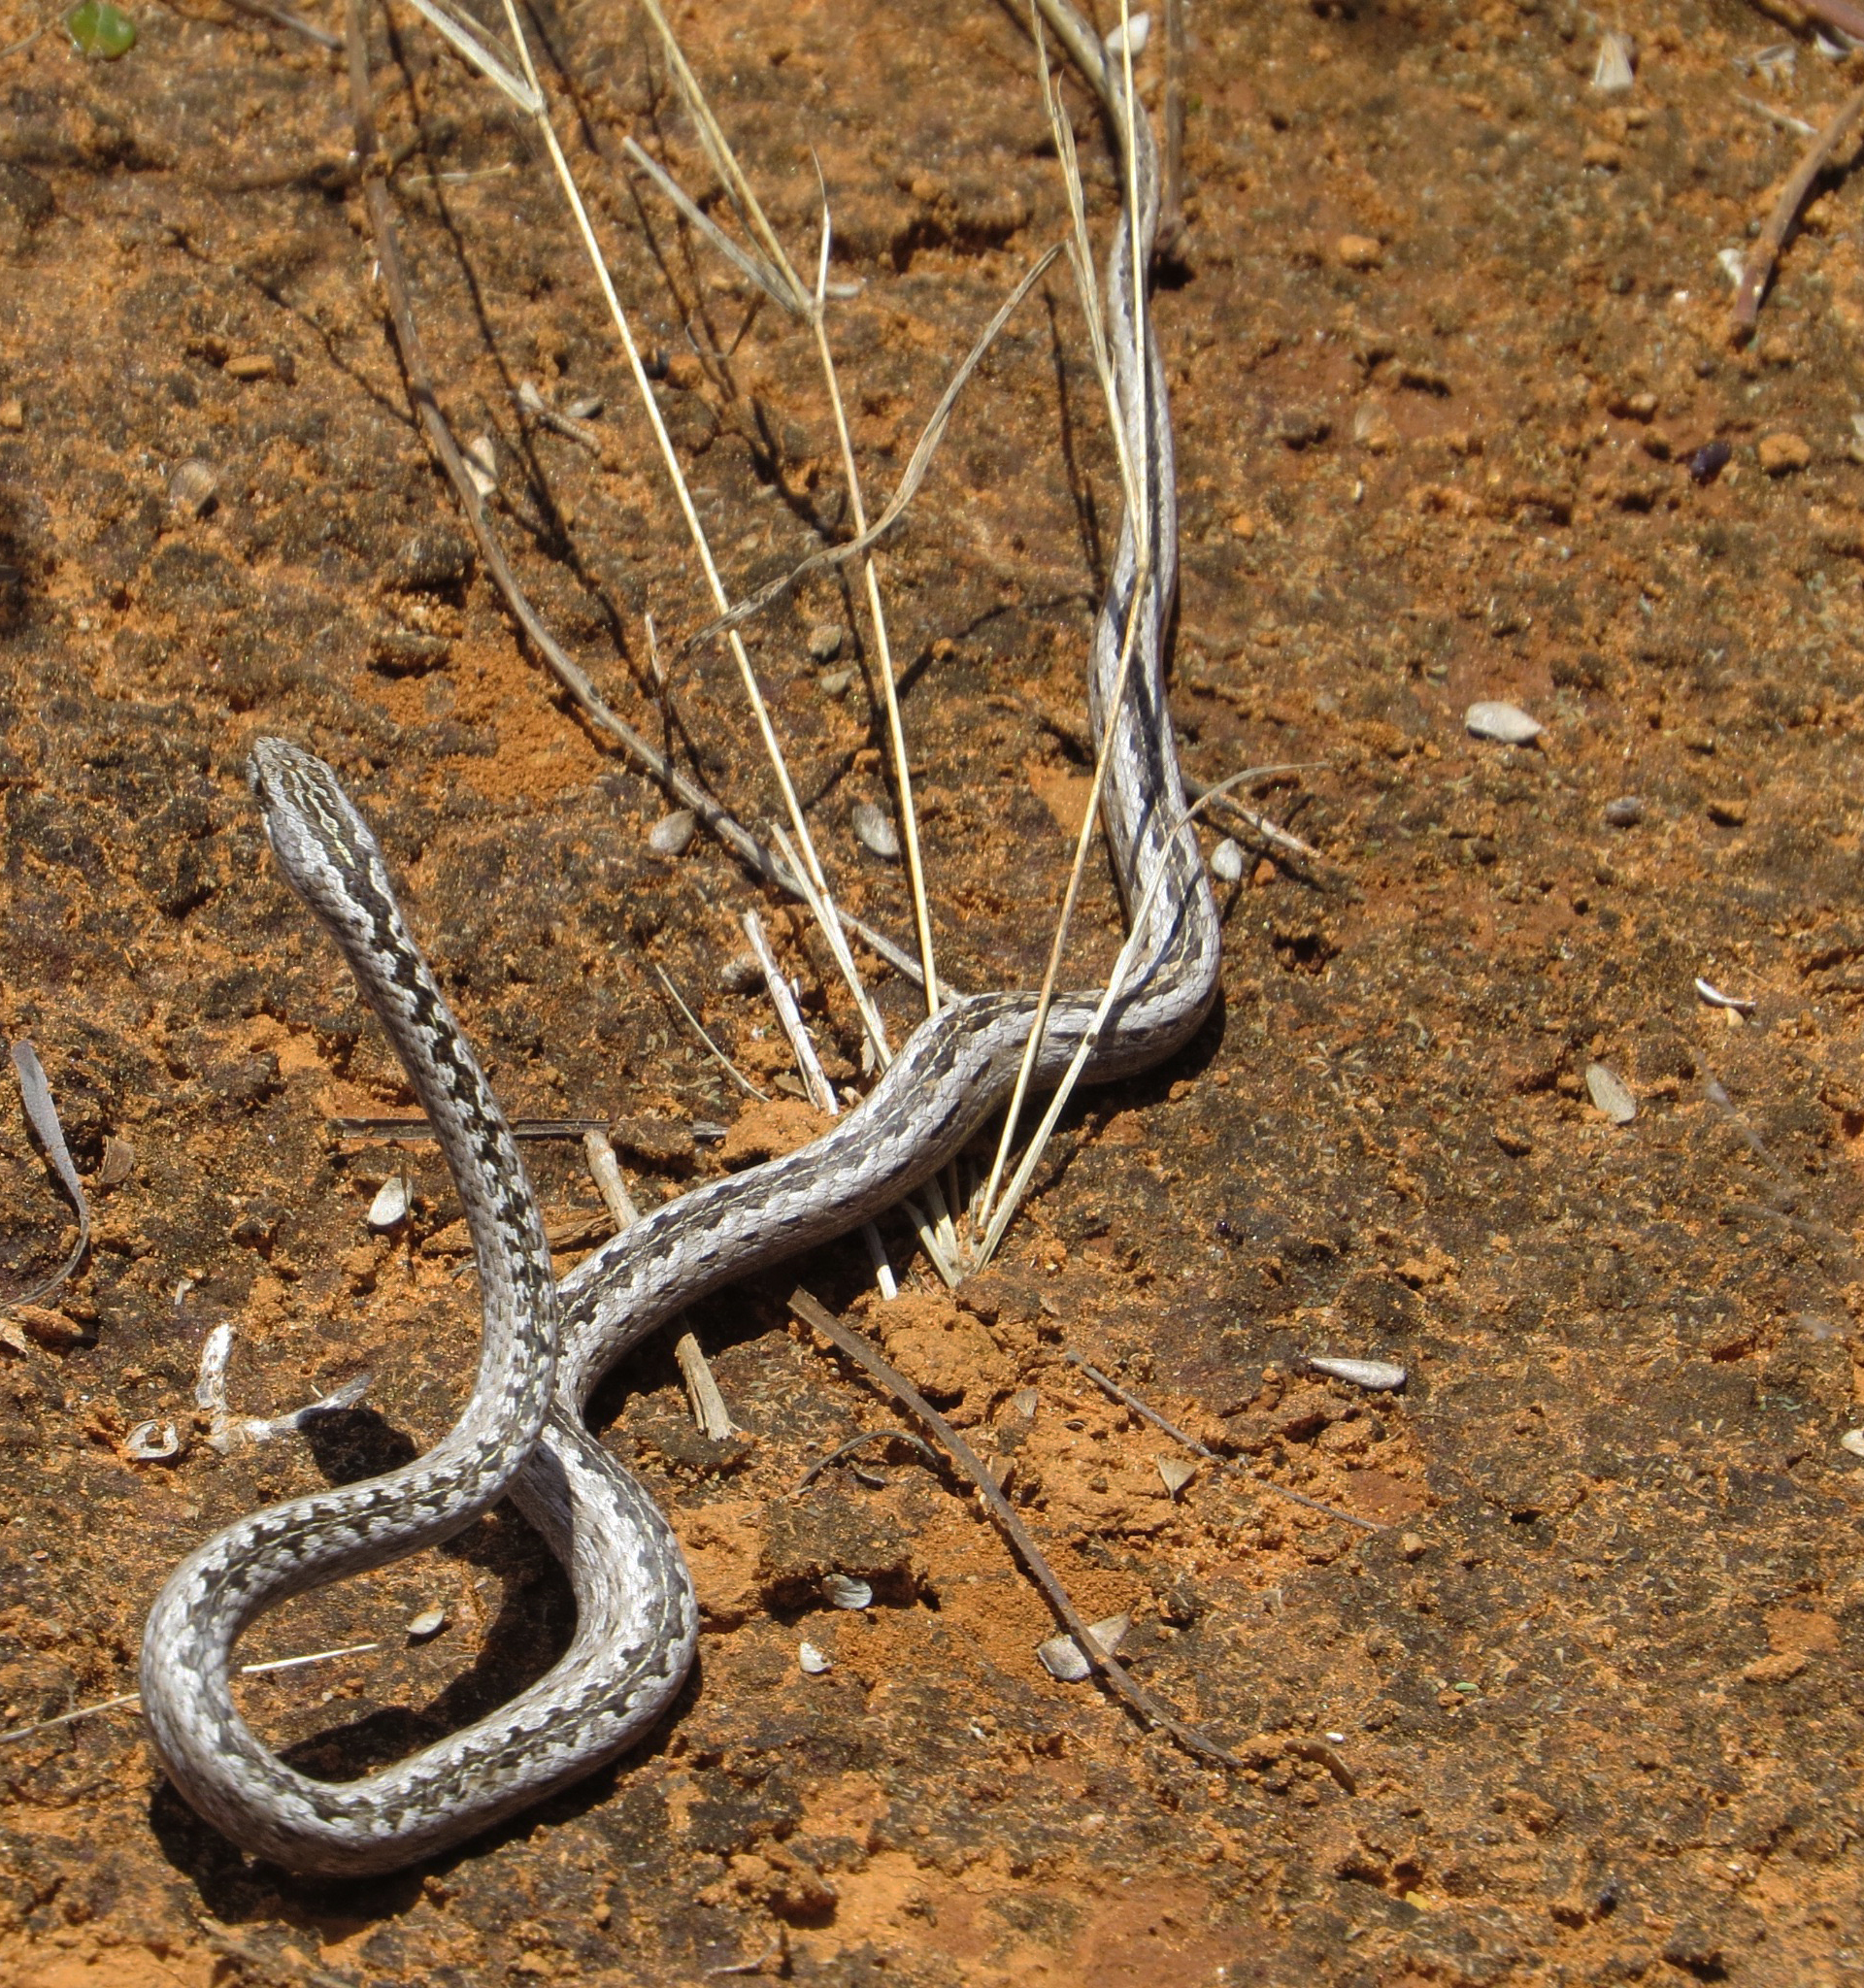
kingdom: Animalia
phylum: Chordata
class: Squamata
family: Psammophiidae
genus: Mimophis
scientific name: Mimophis mahfalensis
